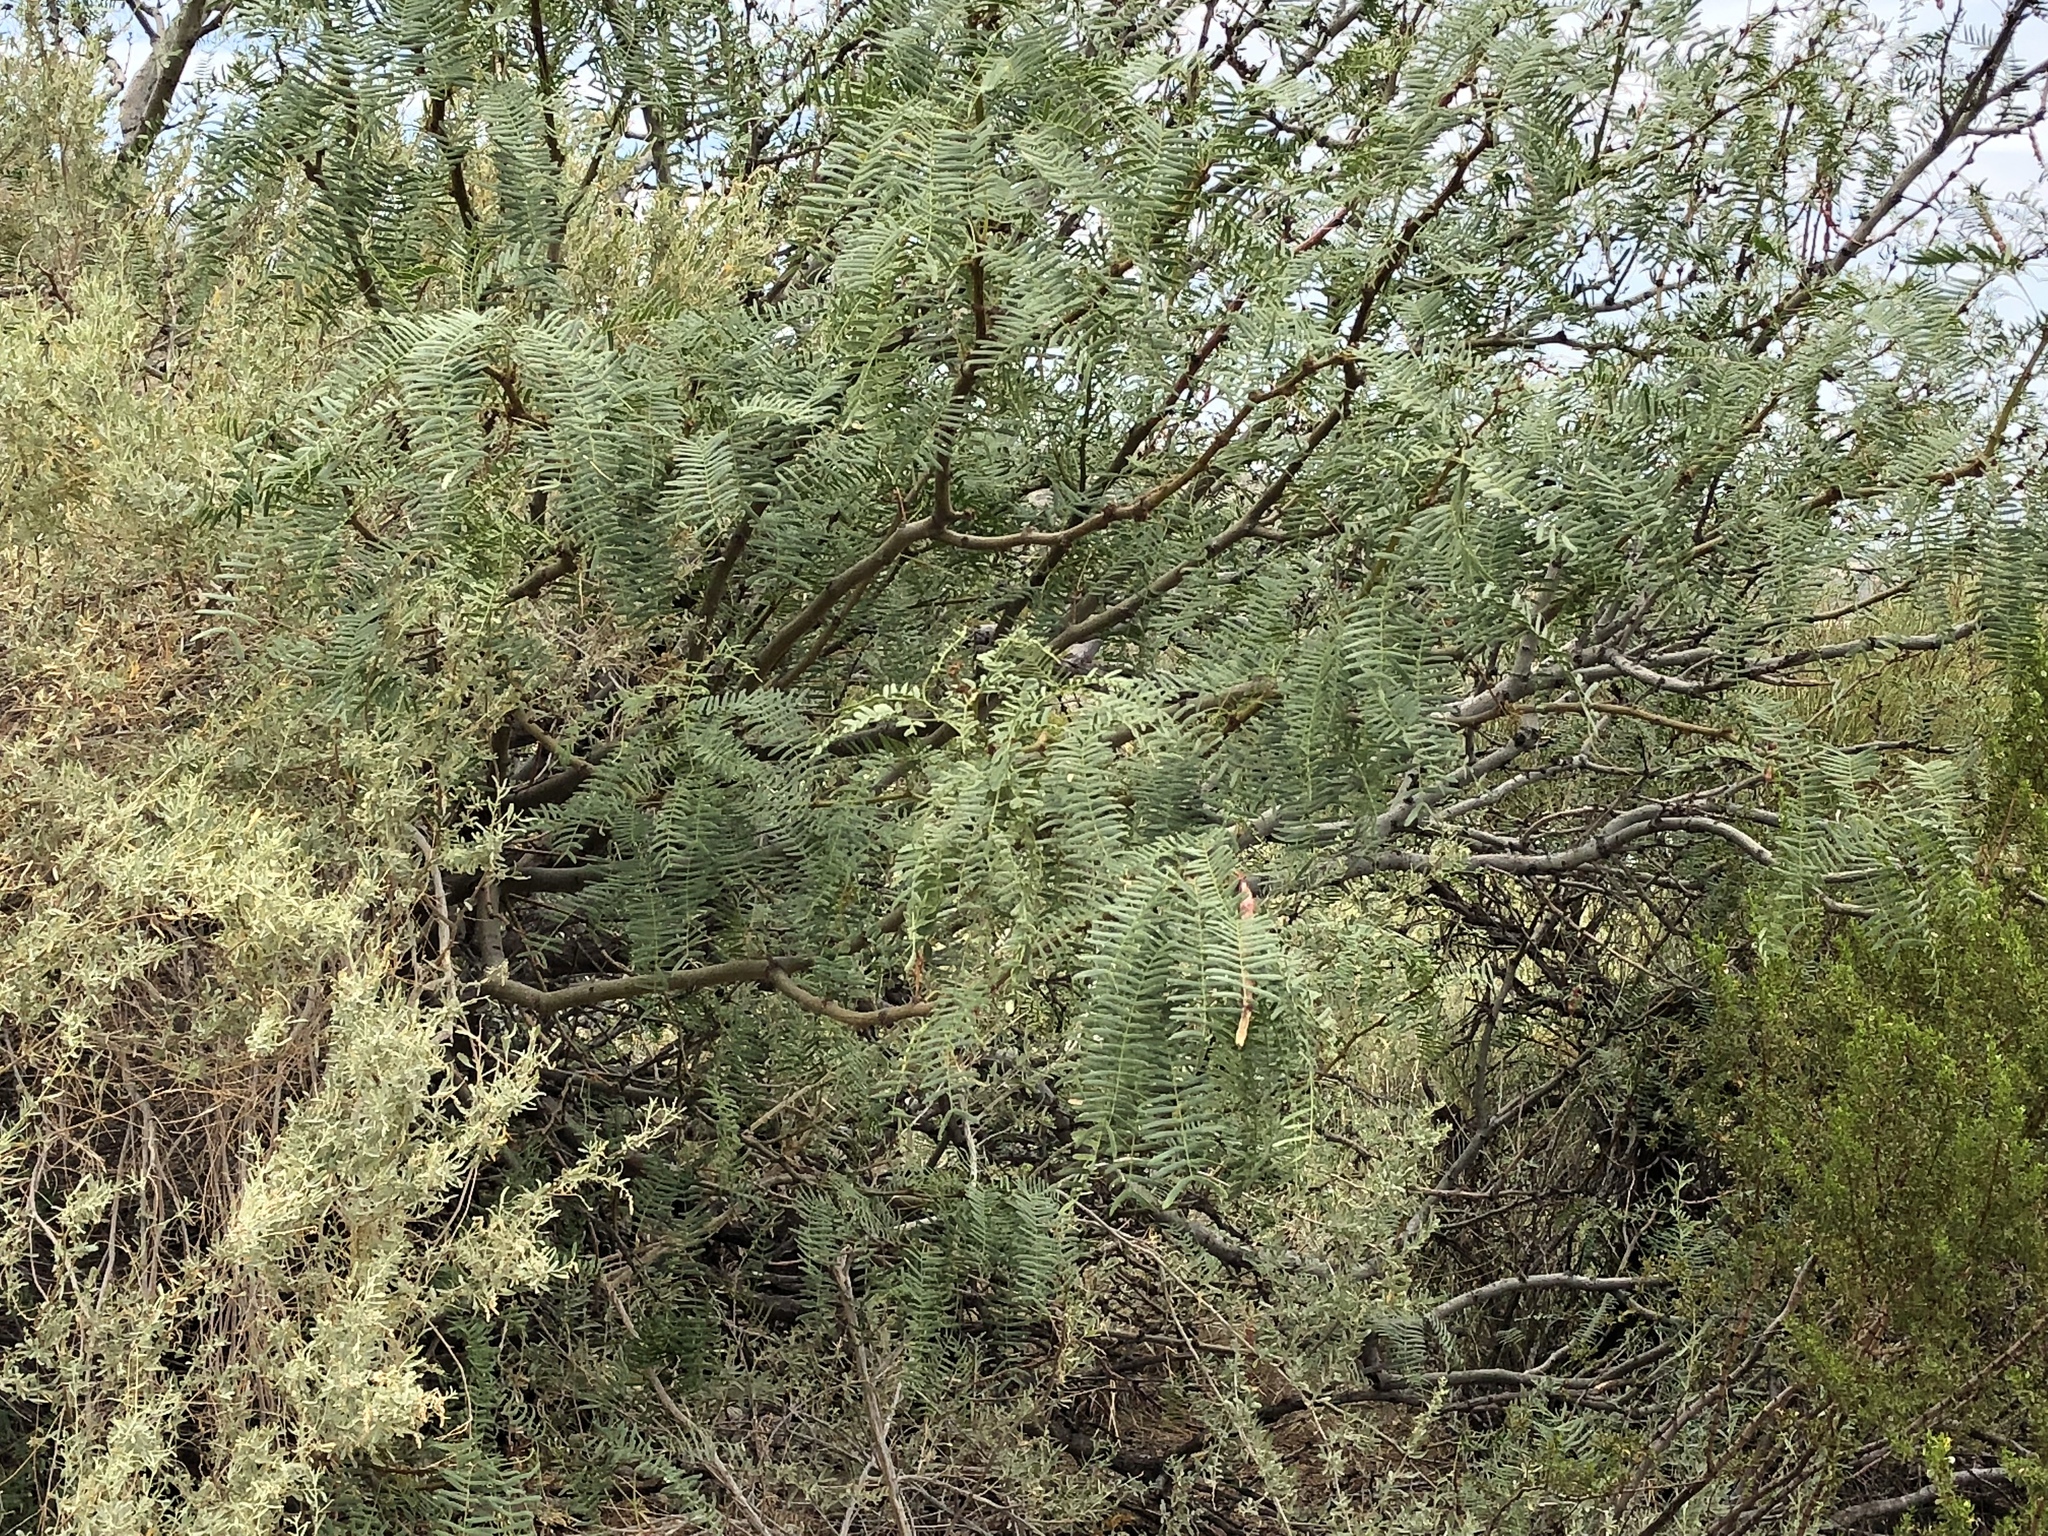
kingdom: Plantae
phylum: Tracheophyta
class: Magnoliopsida
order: Fabales
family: Fabaceae
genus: Prosopis
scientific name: Prosopis glandulosa
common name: Honey mesquite
